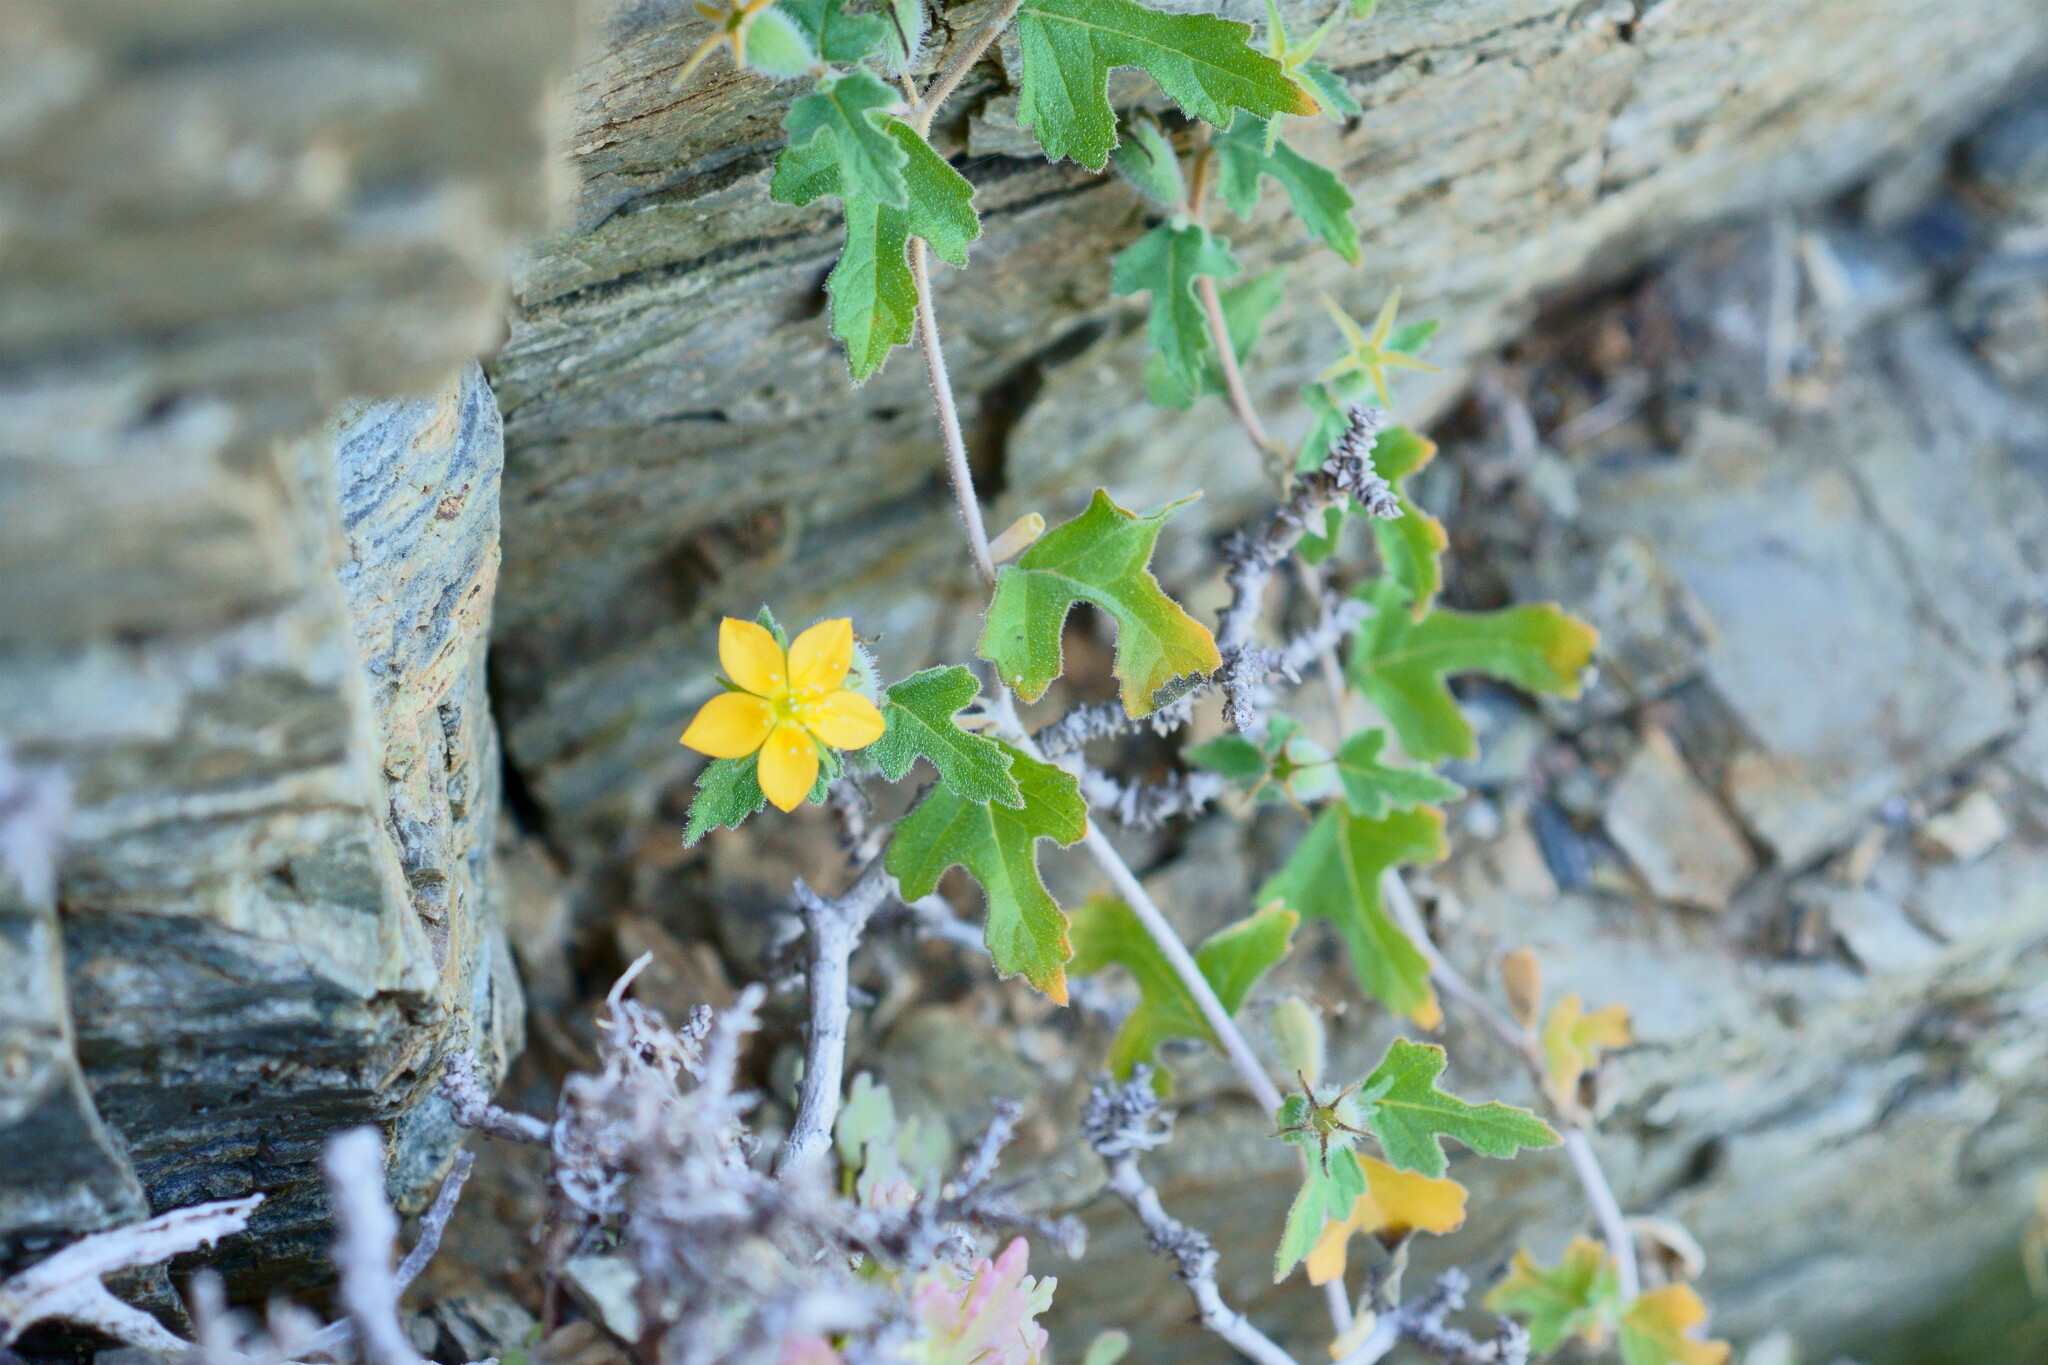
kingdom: Plantae
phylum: Tracheophyta
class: Magnoliopsida
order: Cornales
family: Loasaceae
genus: Mentzelia
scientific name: Mentzelia adhaerens
